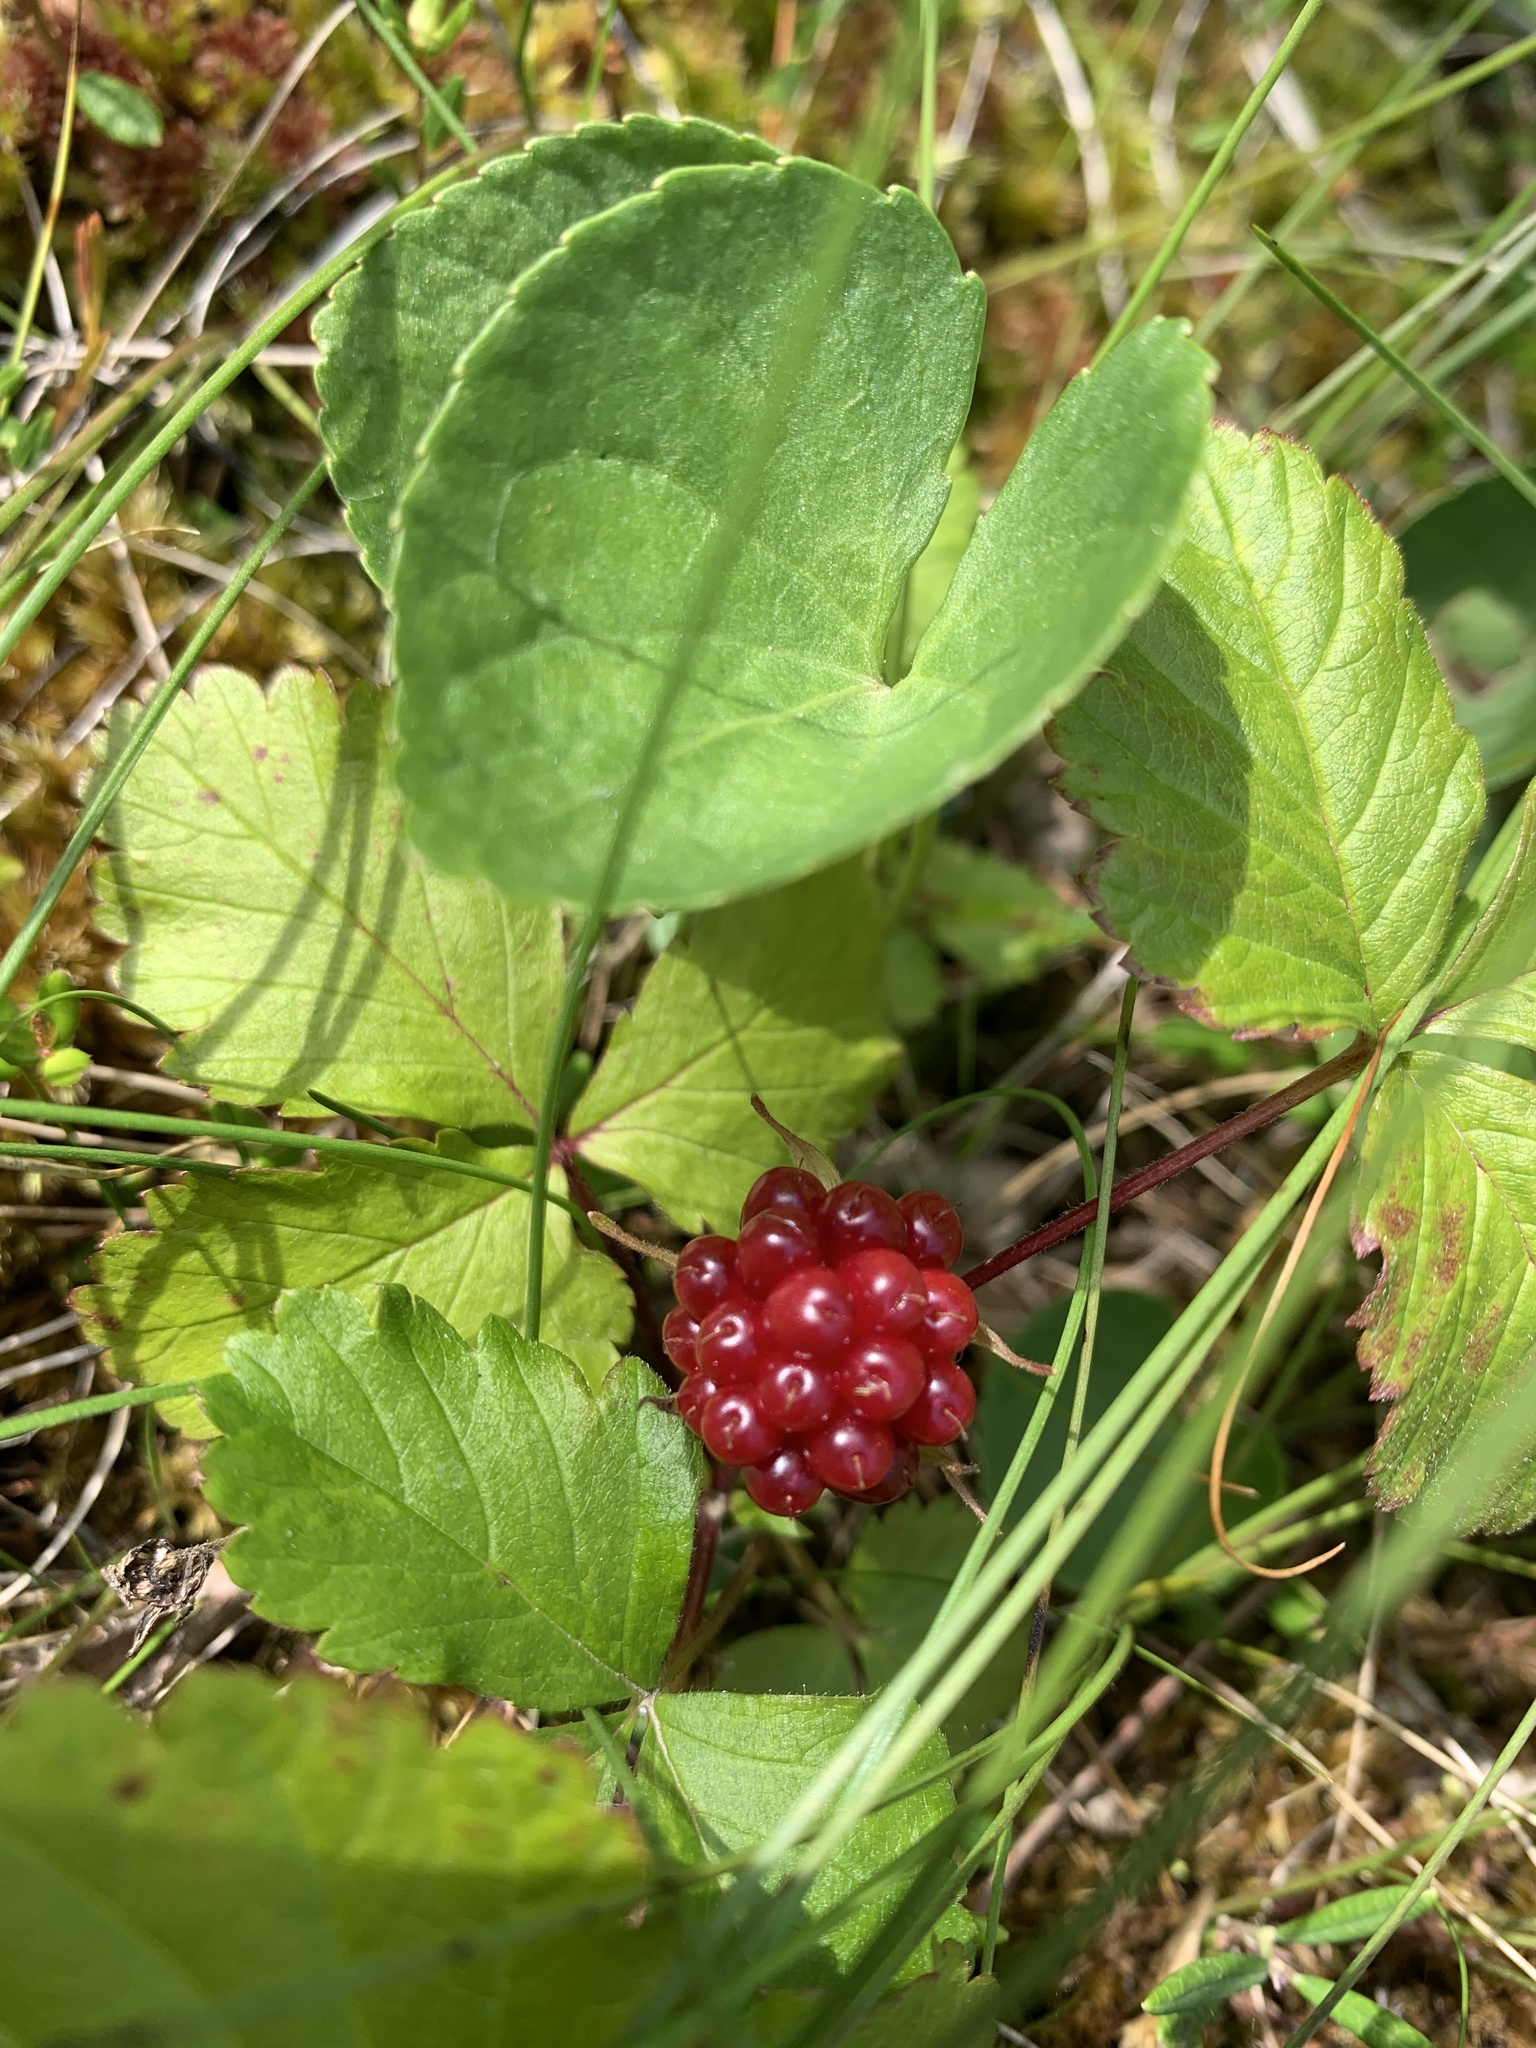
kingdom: Plantae
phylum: Tracheophyta
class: Magnoliopsida
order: Ranunculales
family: Ranunculaceae
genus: Caltha
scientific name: Caltha palustris
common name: Marsh marigold
